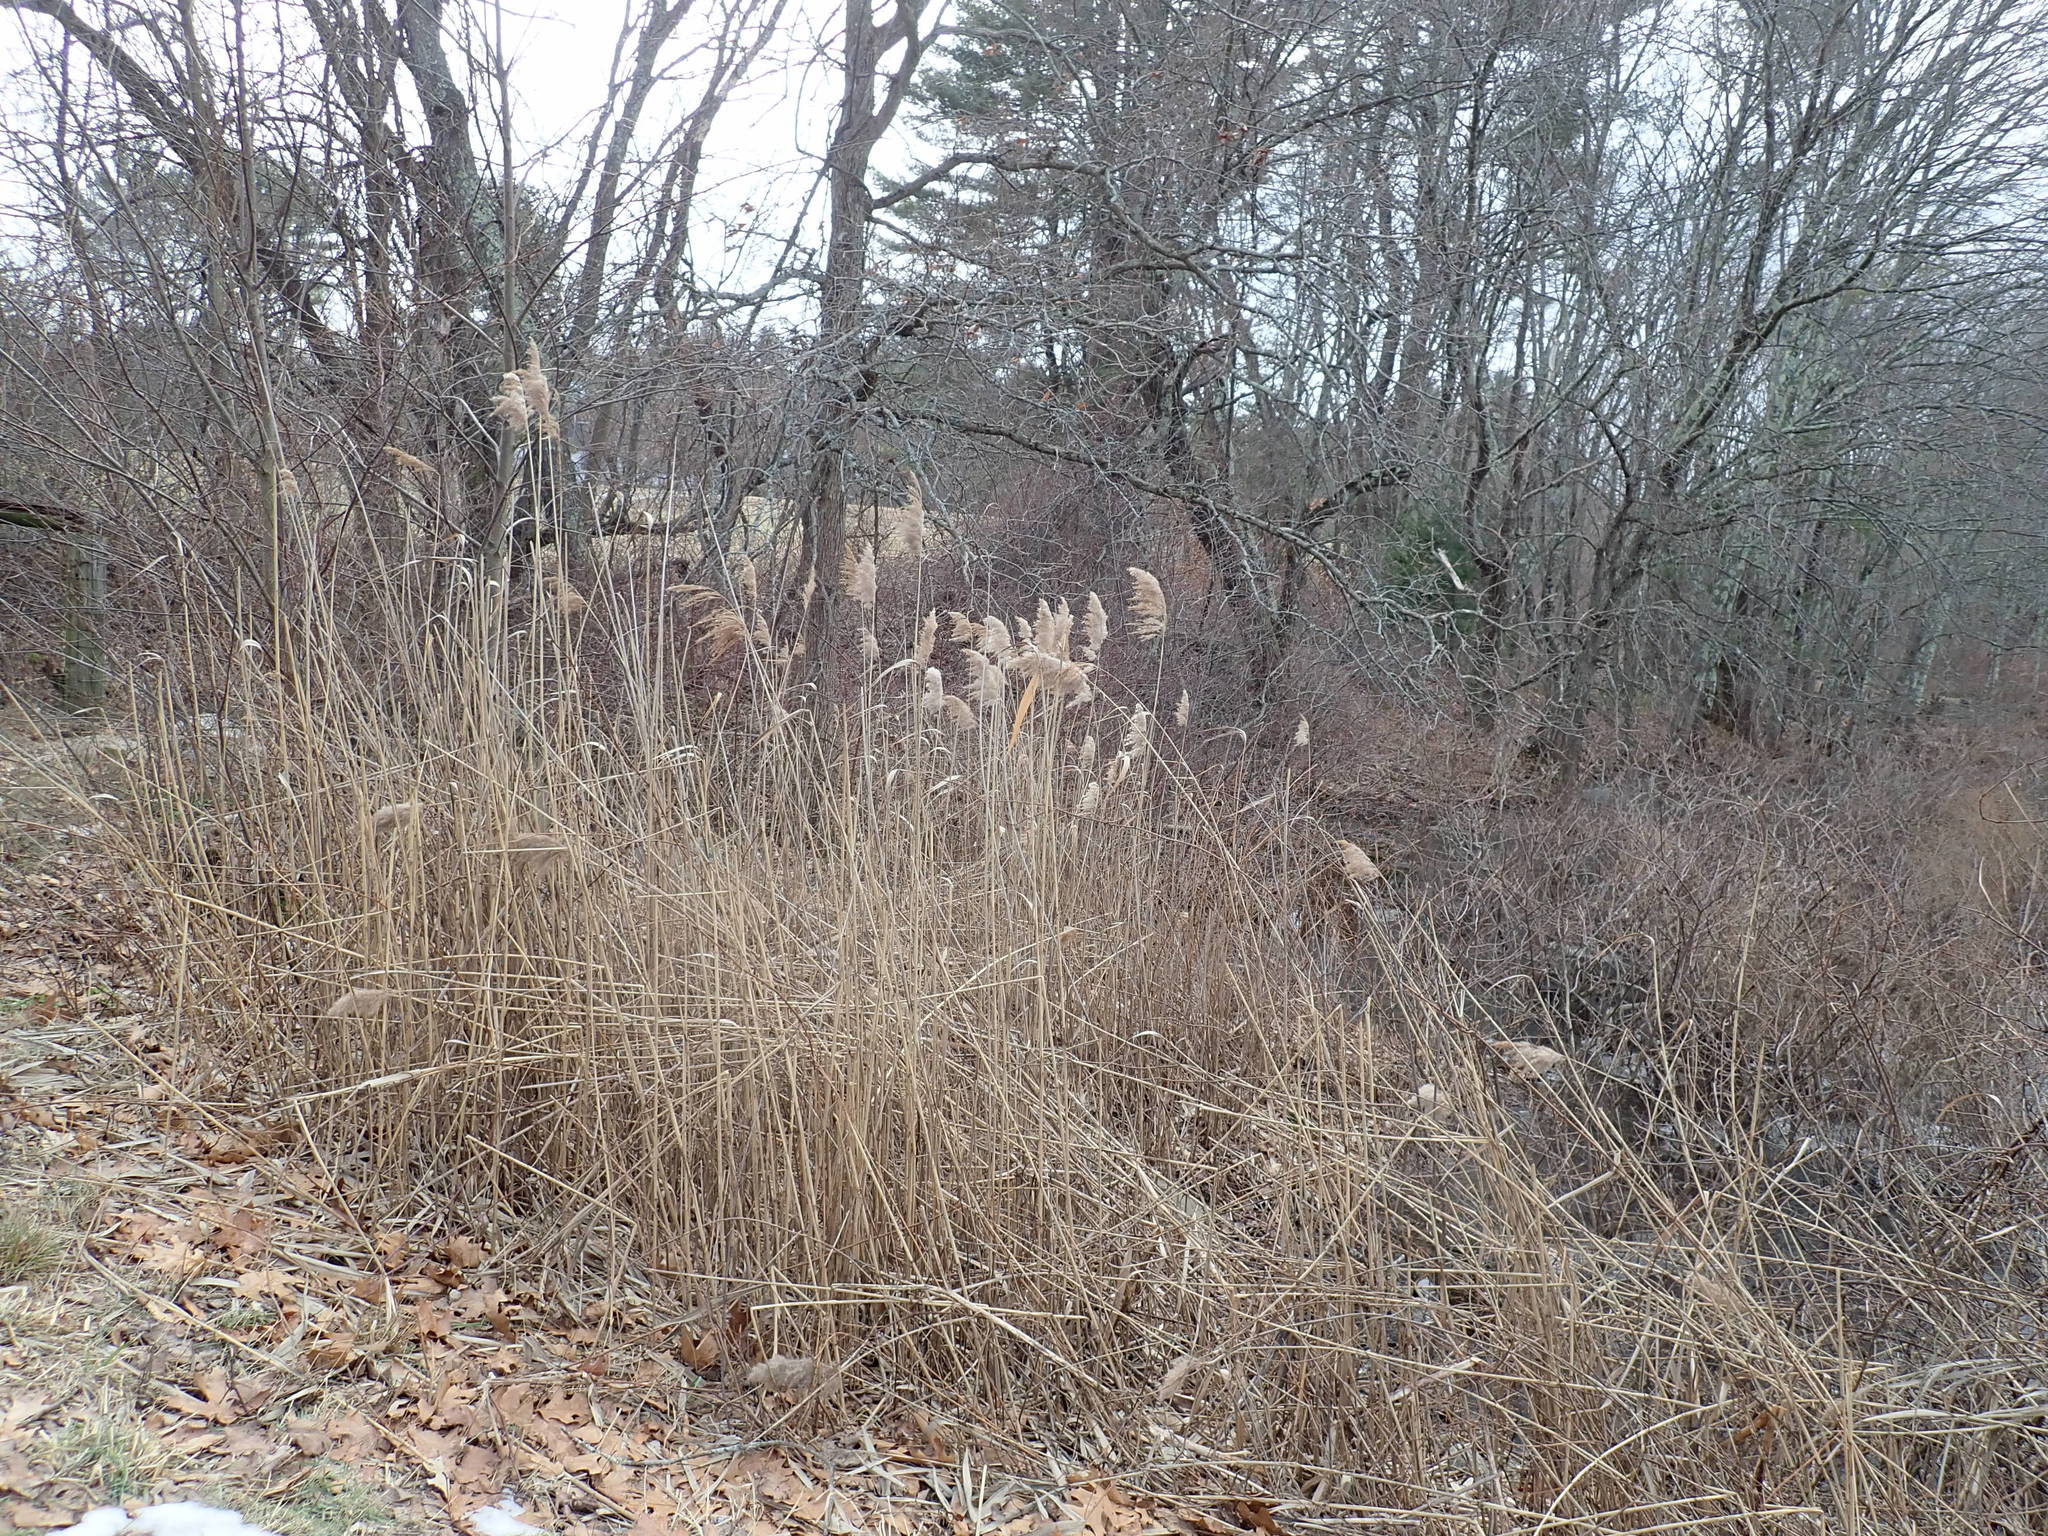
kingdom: Plantae
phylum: Tracheophyta
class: Liliopsida
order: Poales
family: Poaceae
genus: Phragmites
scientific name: Phragmites australis
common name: Common reed
